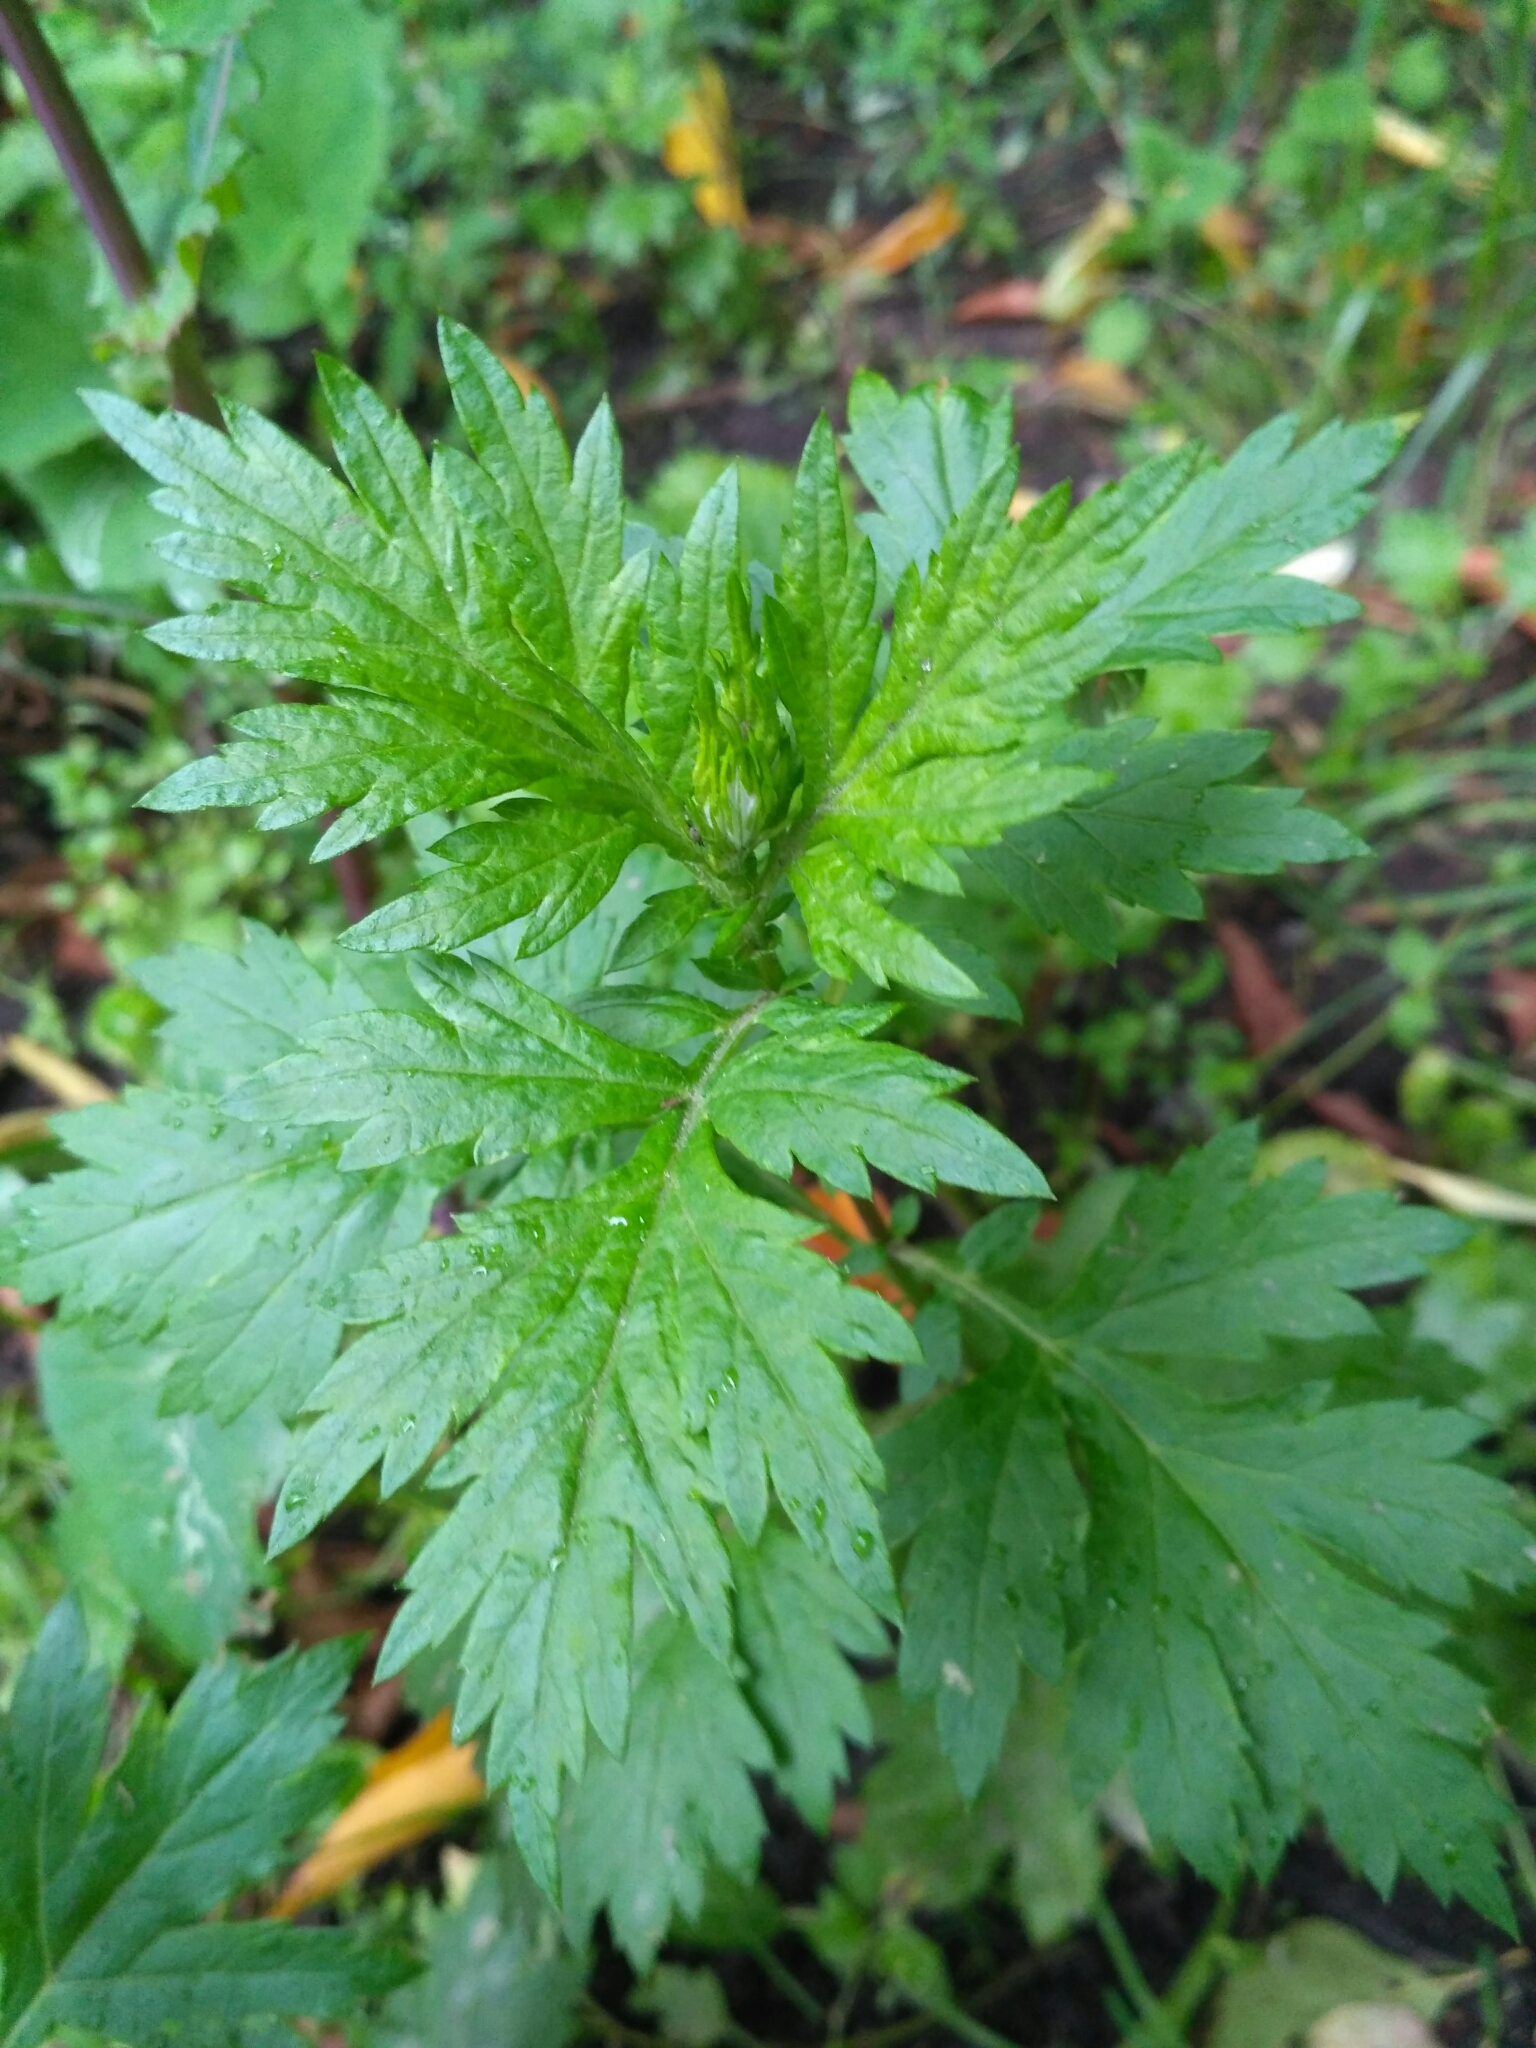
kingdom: Plantae
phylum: Tracheophyta
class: Magnoliopsida
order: Asterales
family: Asteraceae
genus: Artemisia
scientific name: Artemisia vulgaris
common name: Mugwort
